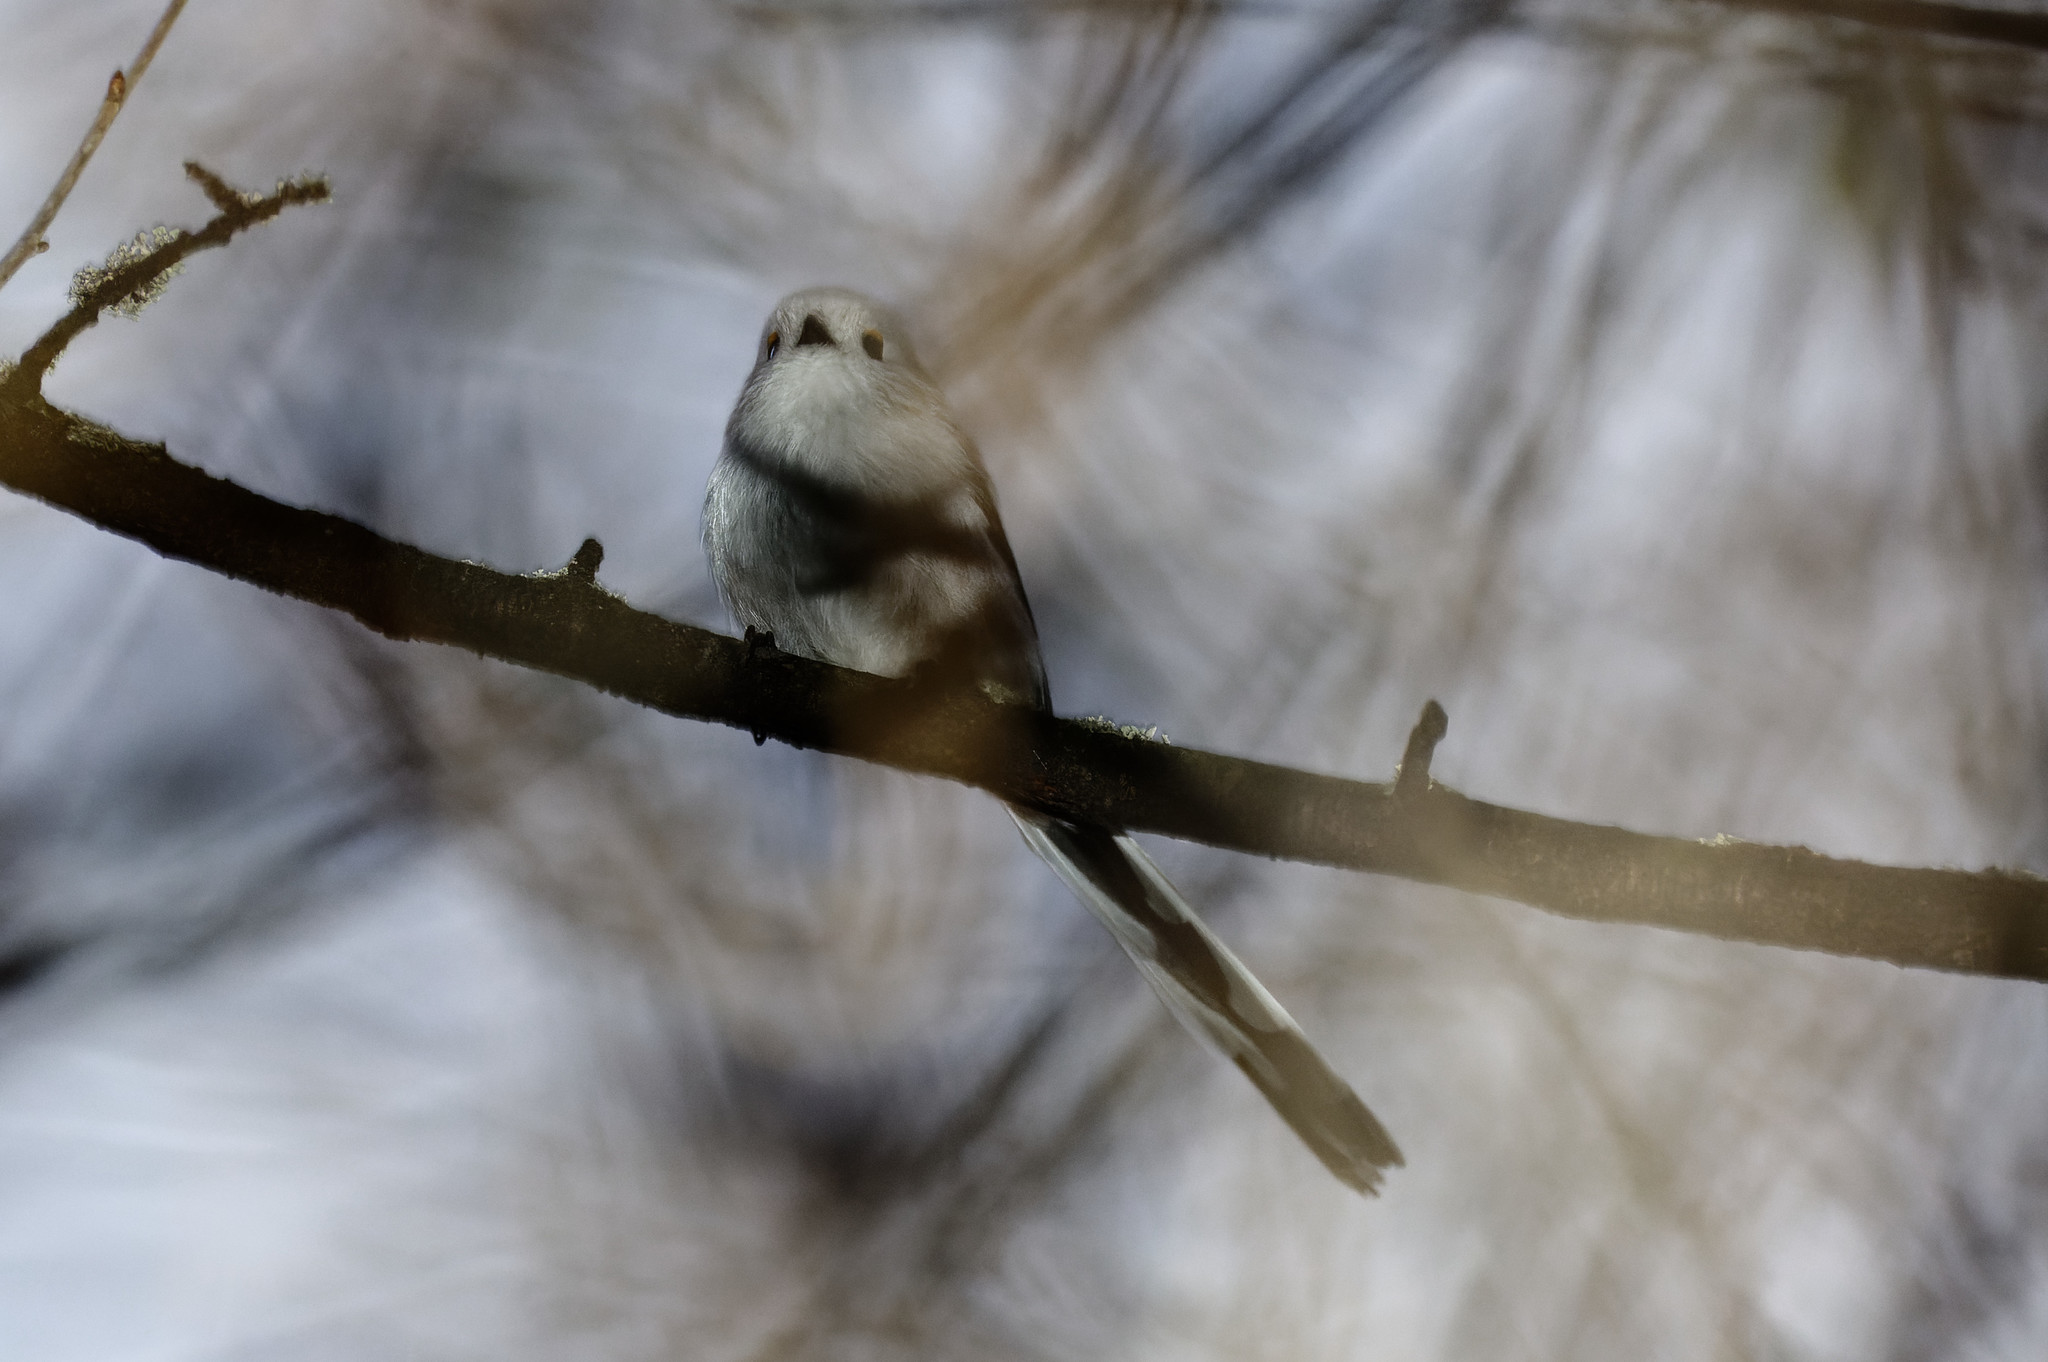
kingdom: Animalia
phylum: Chordata
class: Aves
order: Passeriformes
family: Aegithalidae
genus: Aegithalos
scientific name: Aegithalos caudatus
